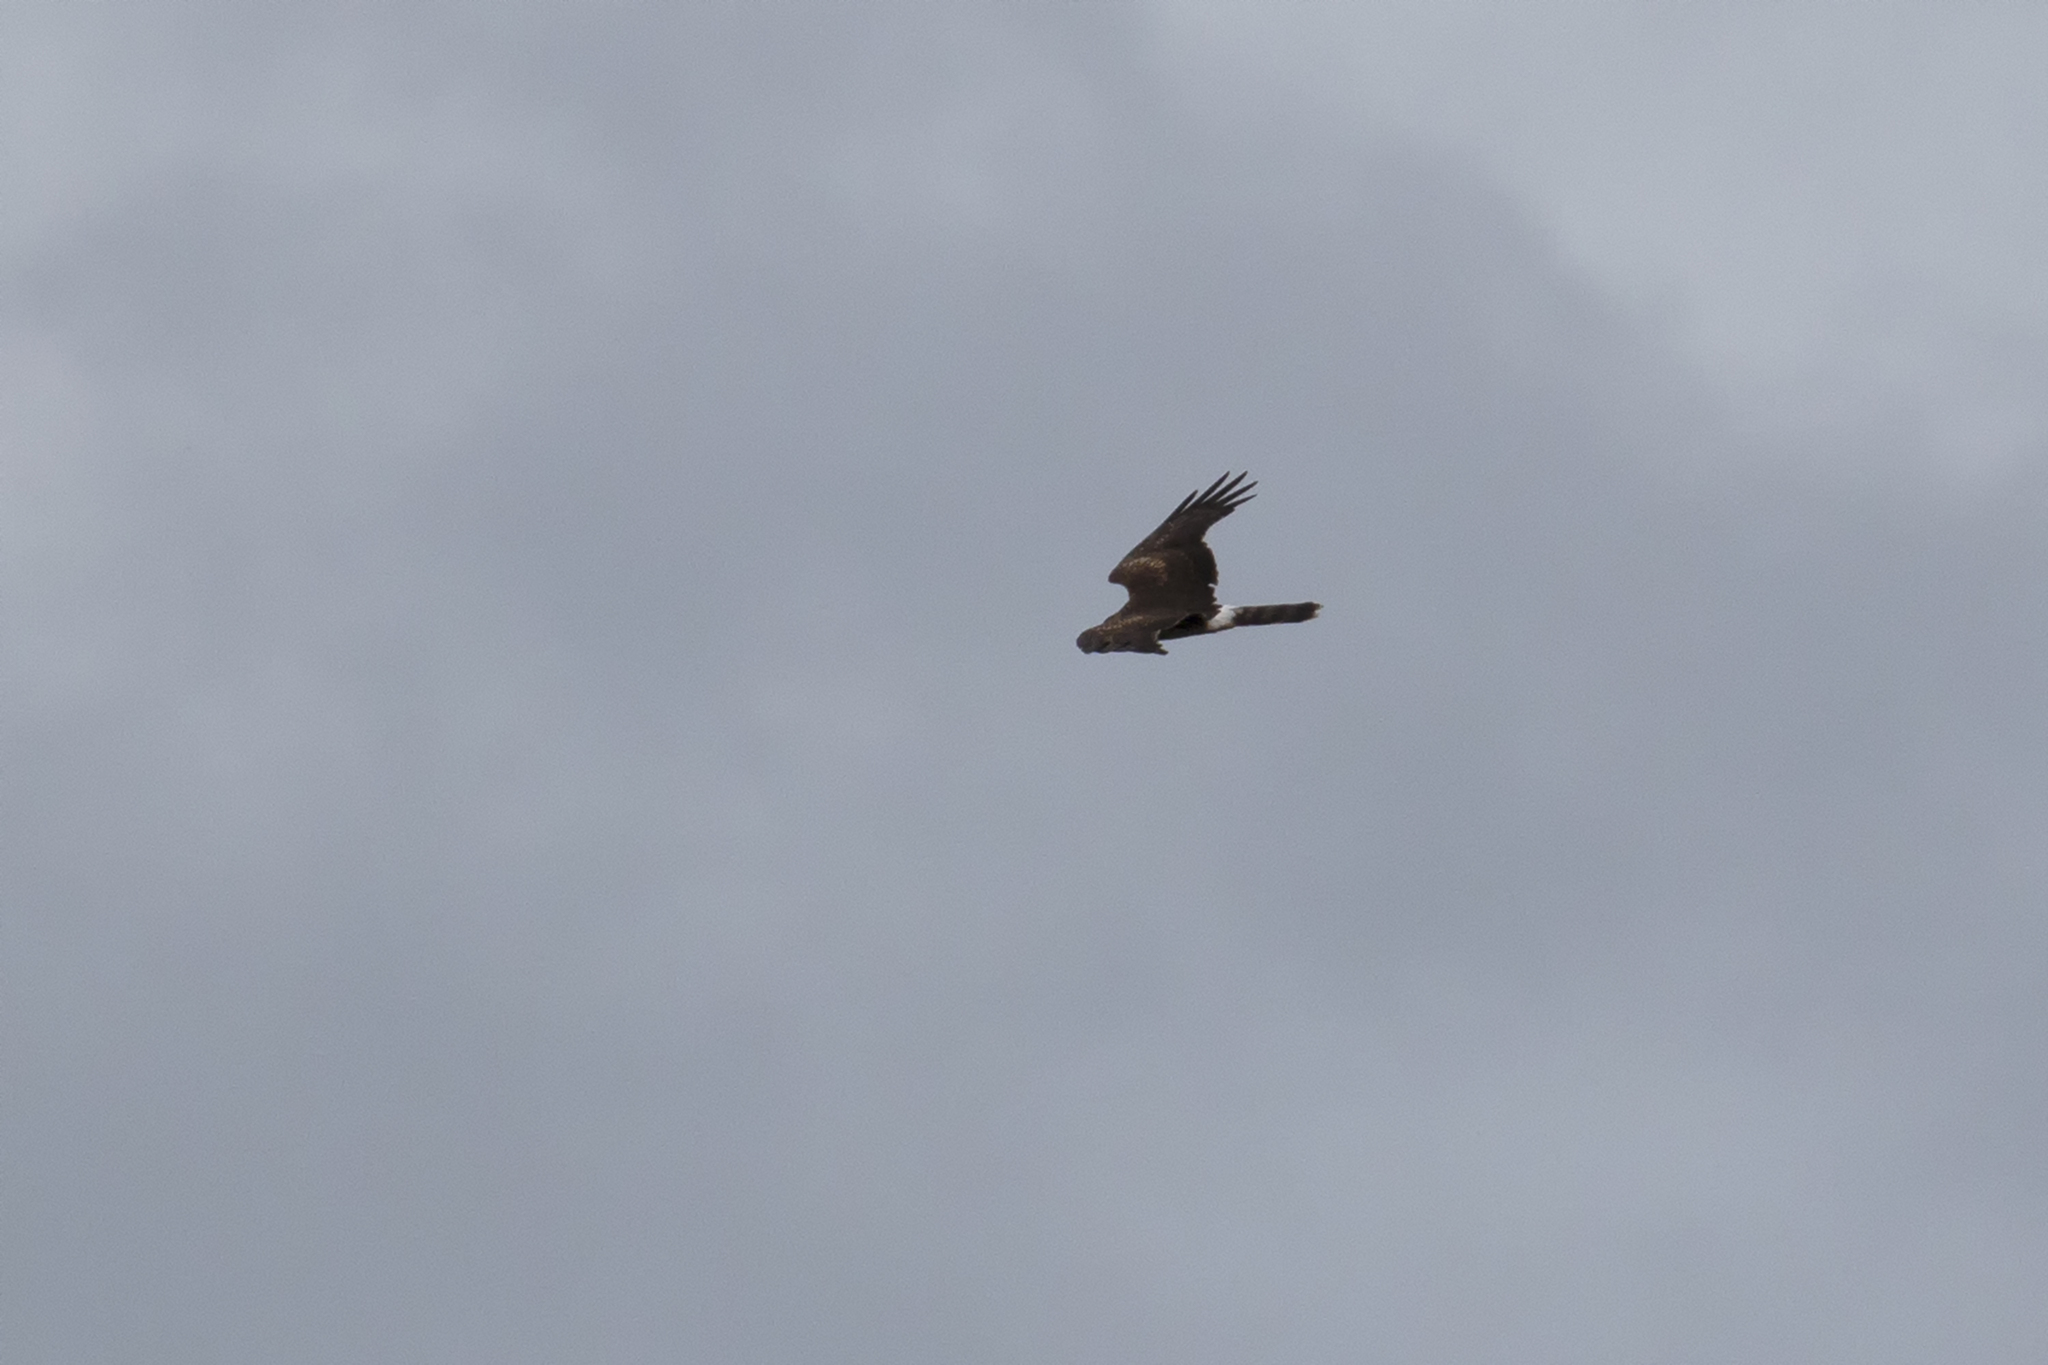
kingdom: Animalia
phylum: Chordata
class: Aves
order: Accipitriformes
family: Accipitridae
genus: Circus
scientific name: Circus cyaneus
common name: Hen harrier
